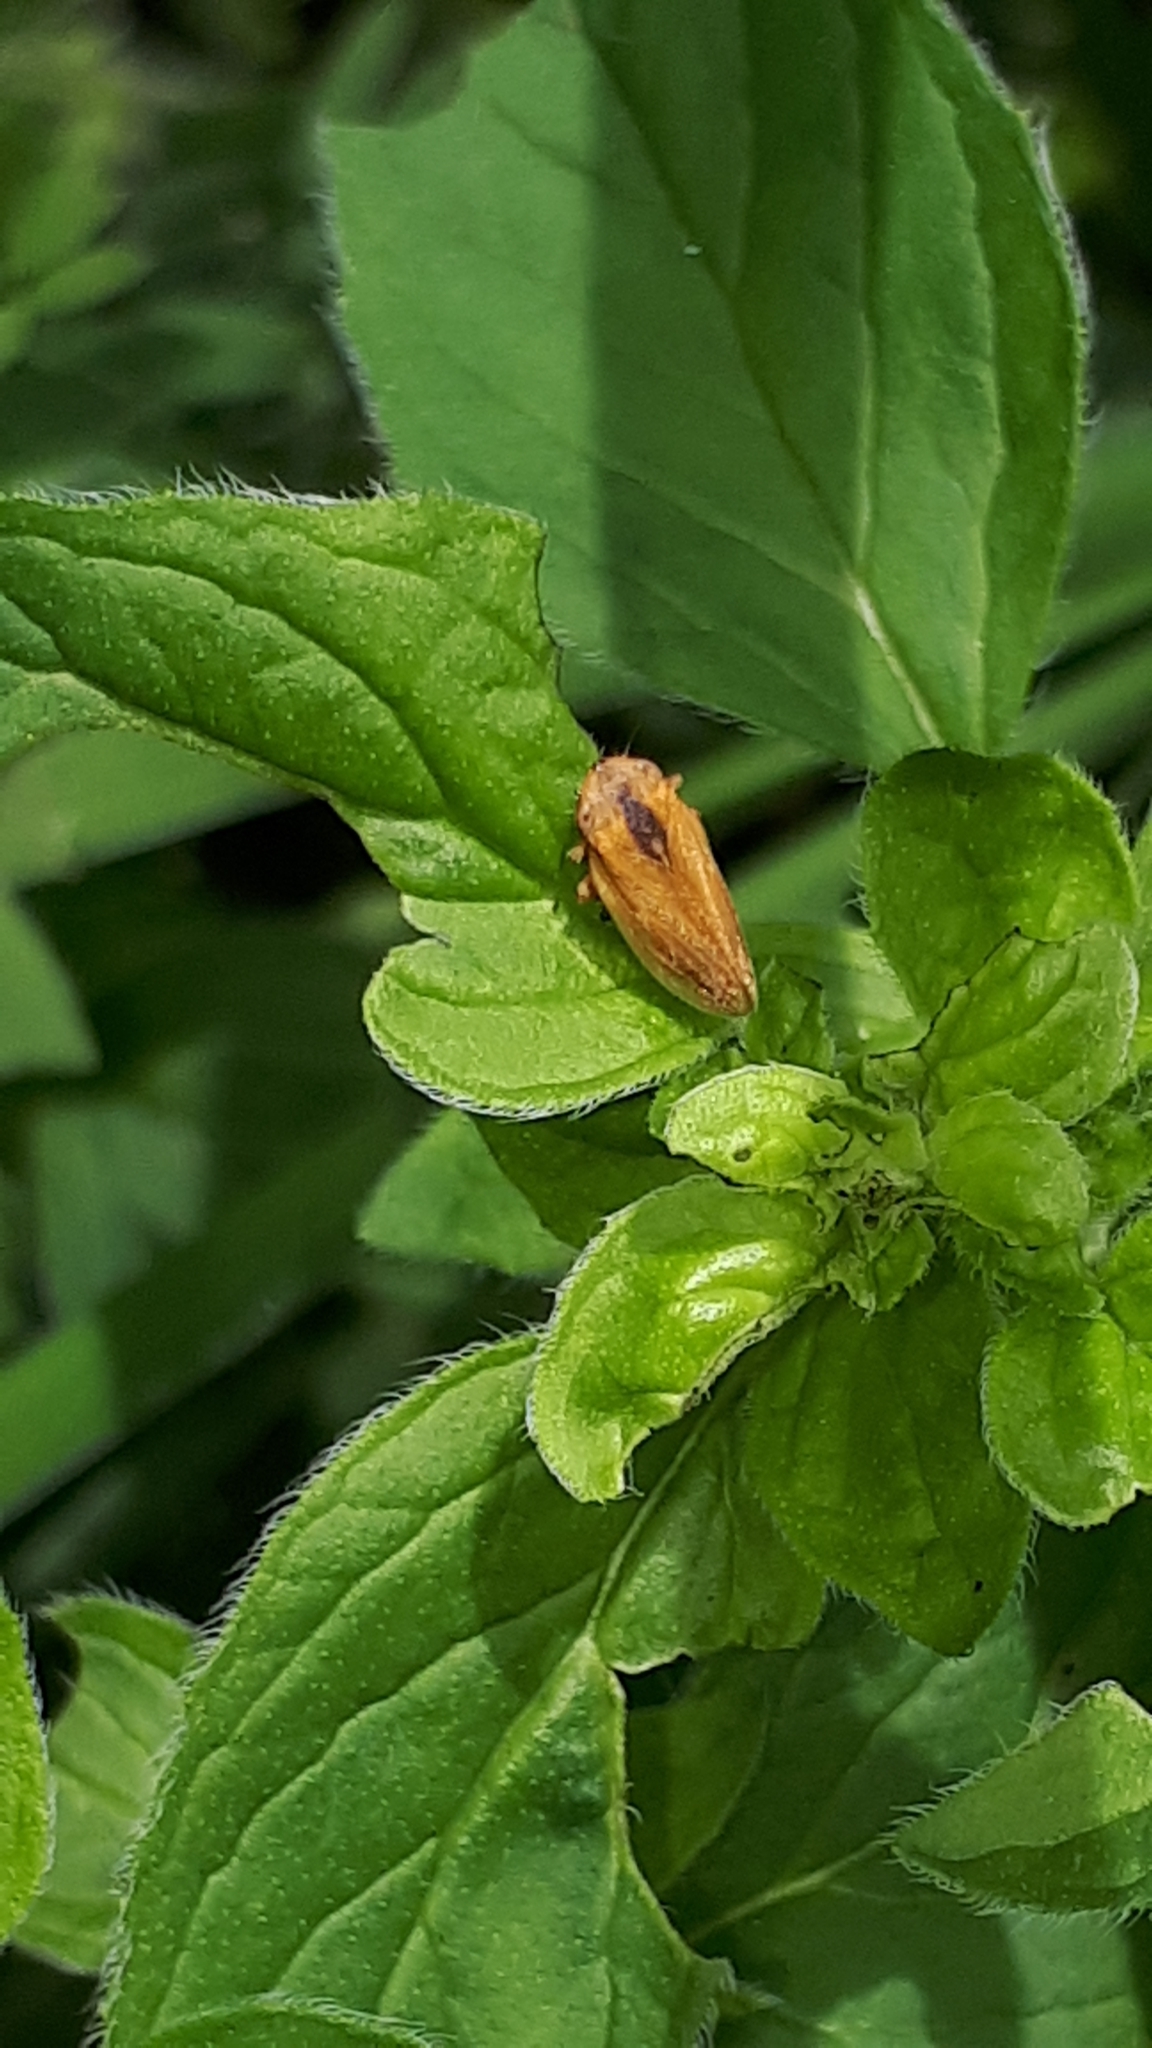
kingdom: Animalia
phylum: Arthropoda
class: Insecta
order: Hemiptera
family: Aphrophoridae
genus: Philaenus
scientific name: Philaenus spumarius
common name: Meadow spittlebug
